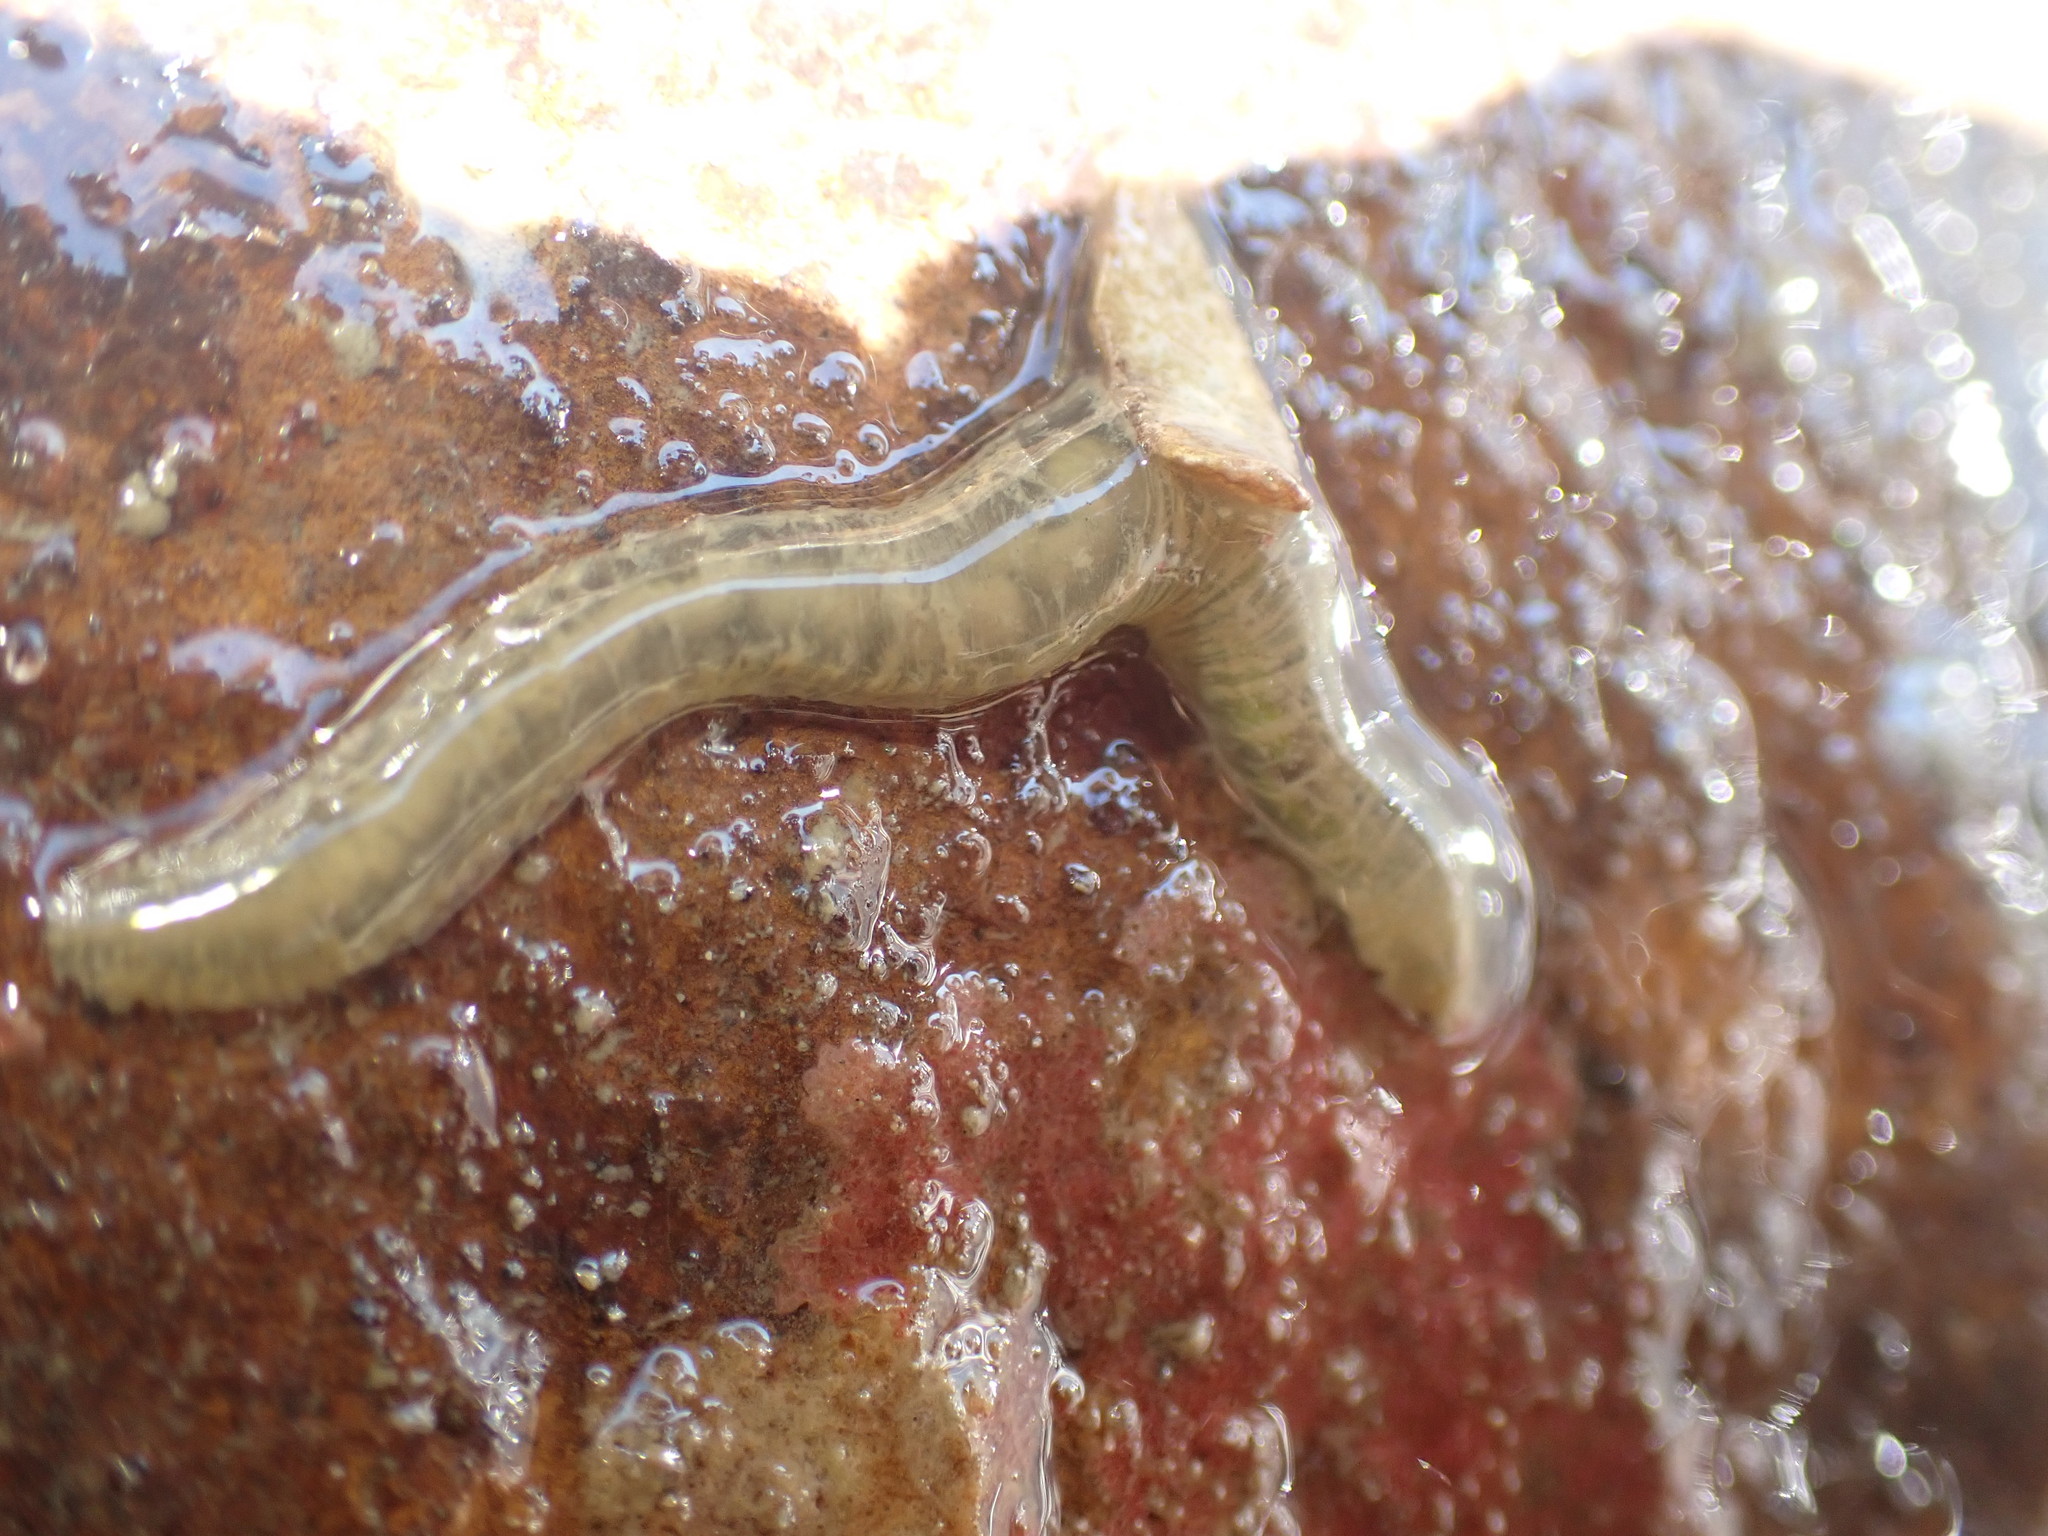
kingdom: Animalia
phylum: Annelida
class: Polychaeta
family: Flabelligeridae
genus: Flabelligera
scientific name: Flabelligera bicolor
